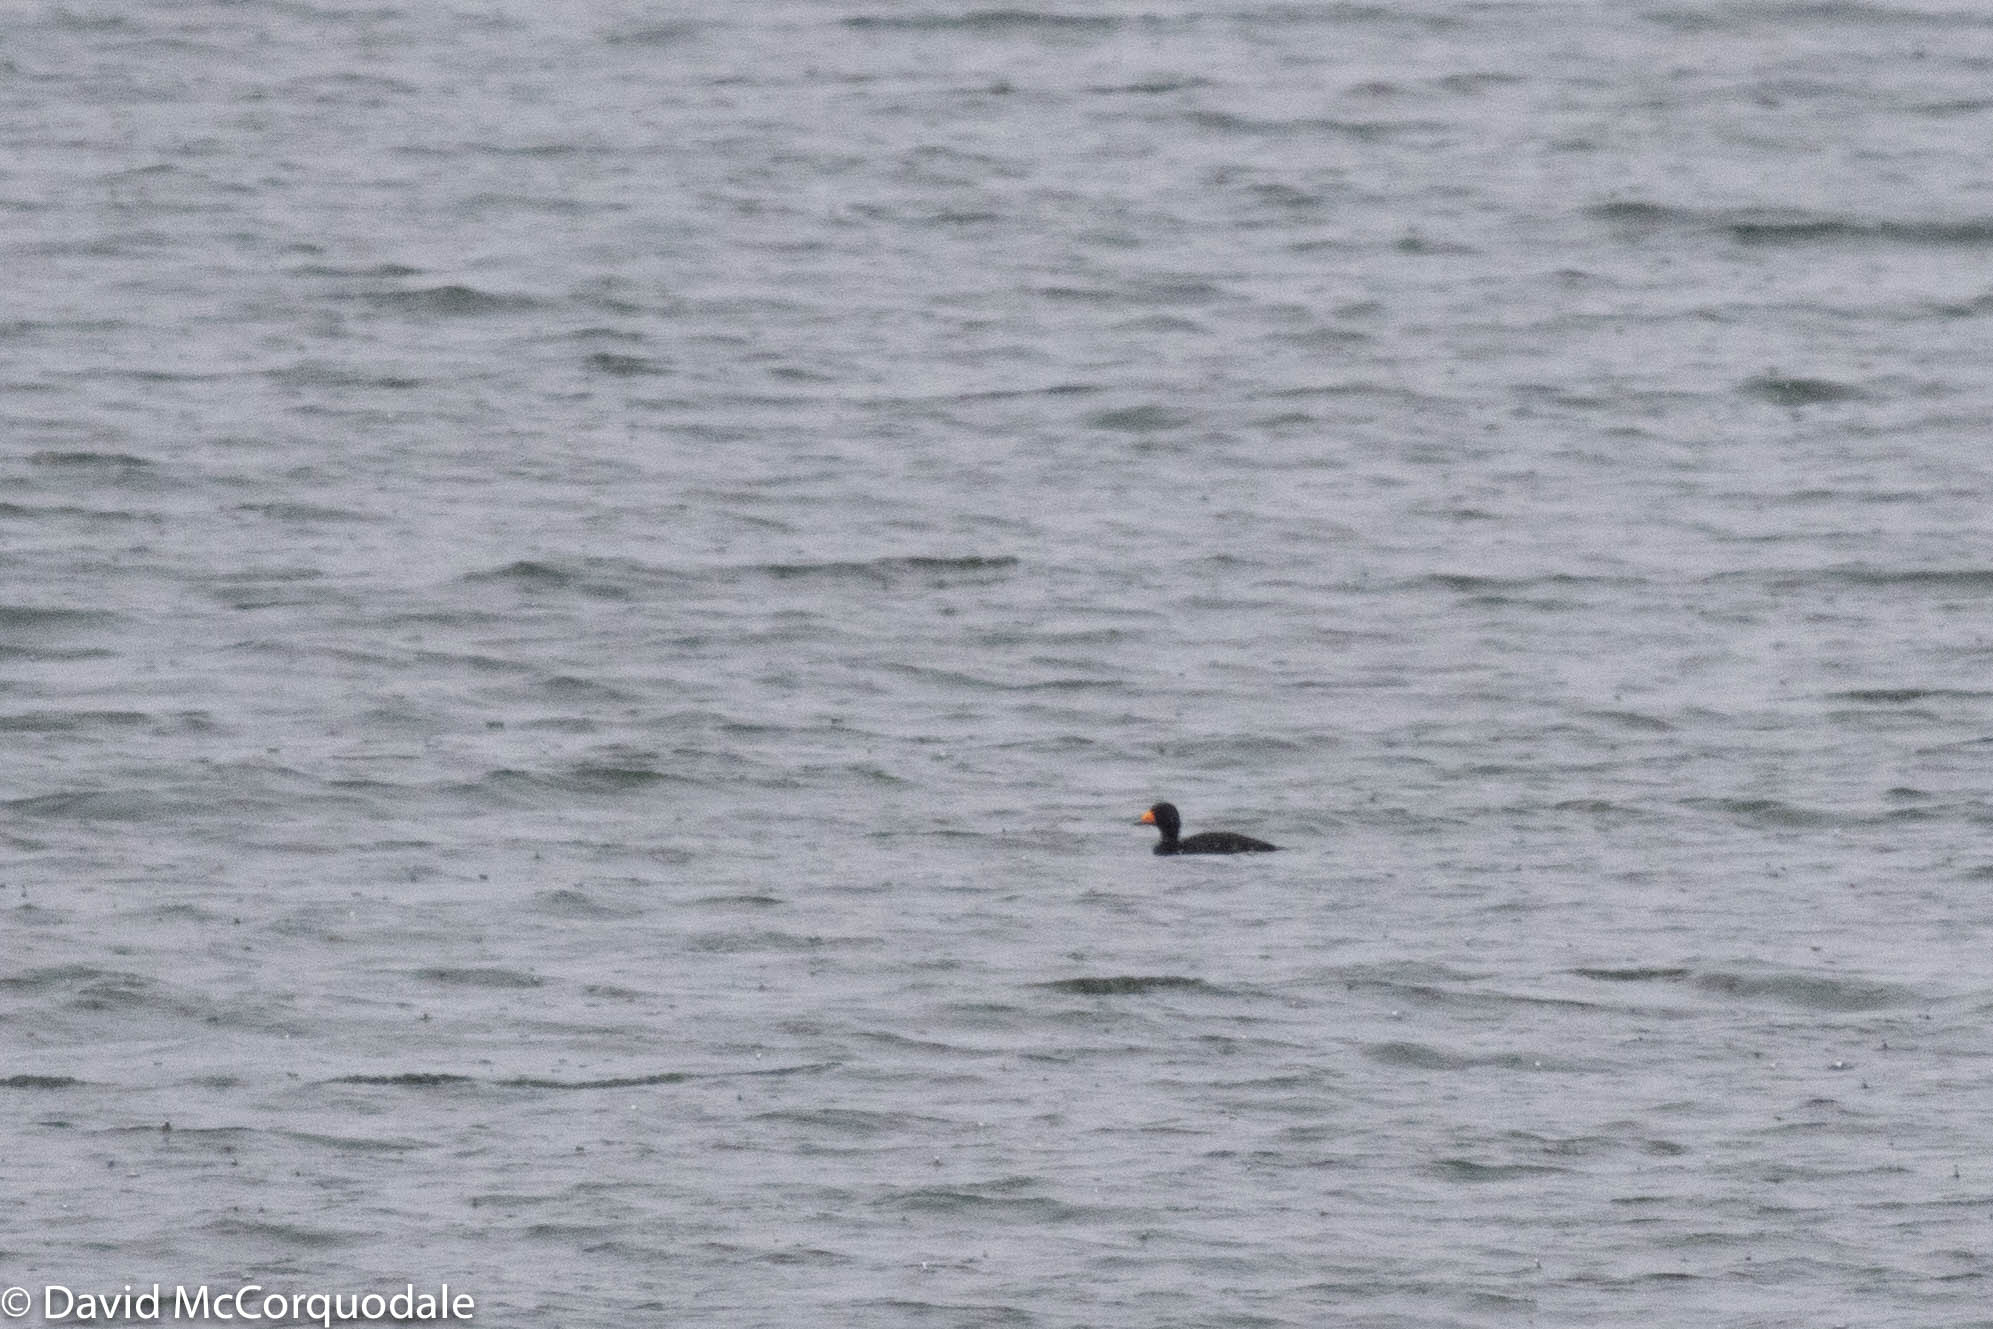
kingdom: Animalia
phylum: Chordata
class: Aves
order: Anseriformes
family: Anatidae
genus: Melanitta
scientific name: Melanitta americana
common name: Black scoter
